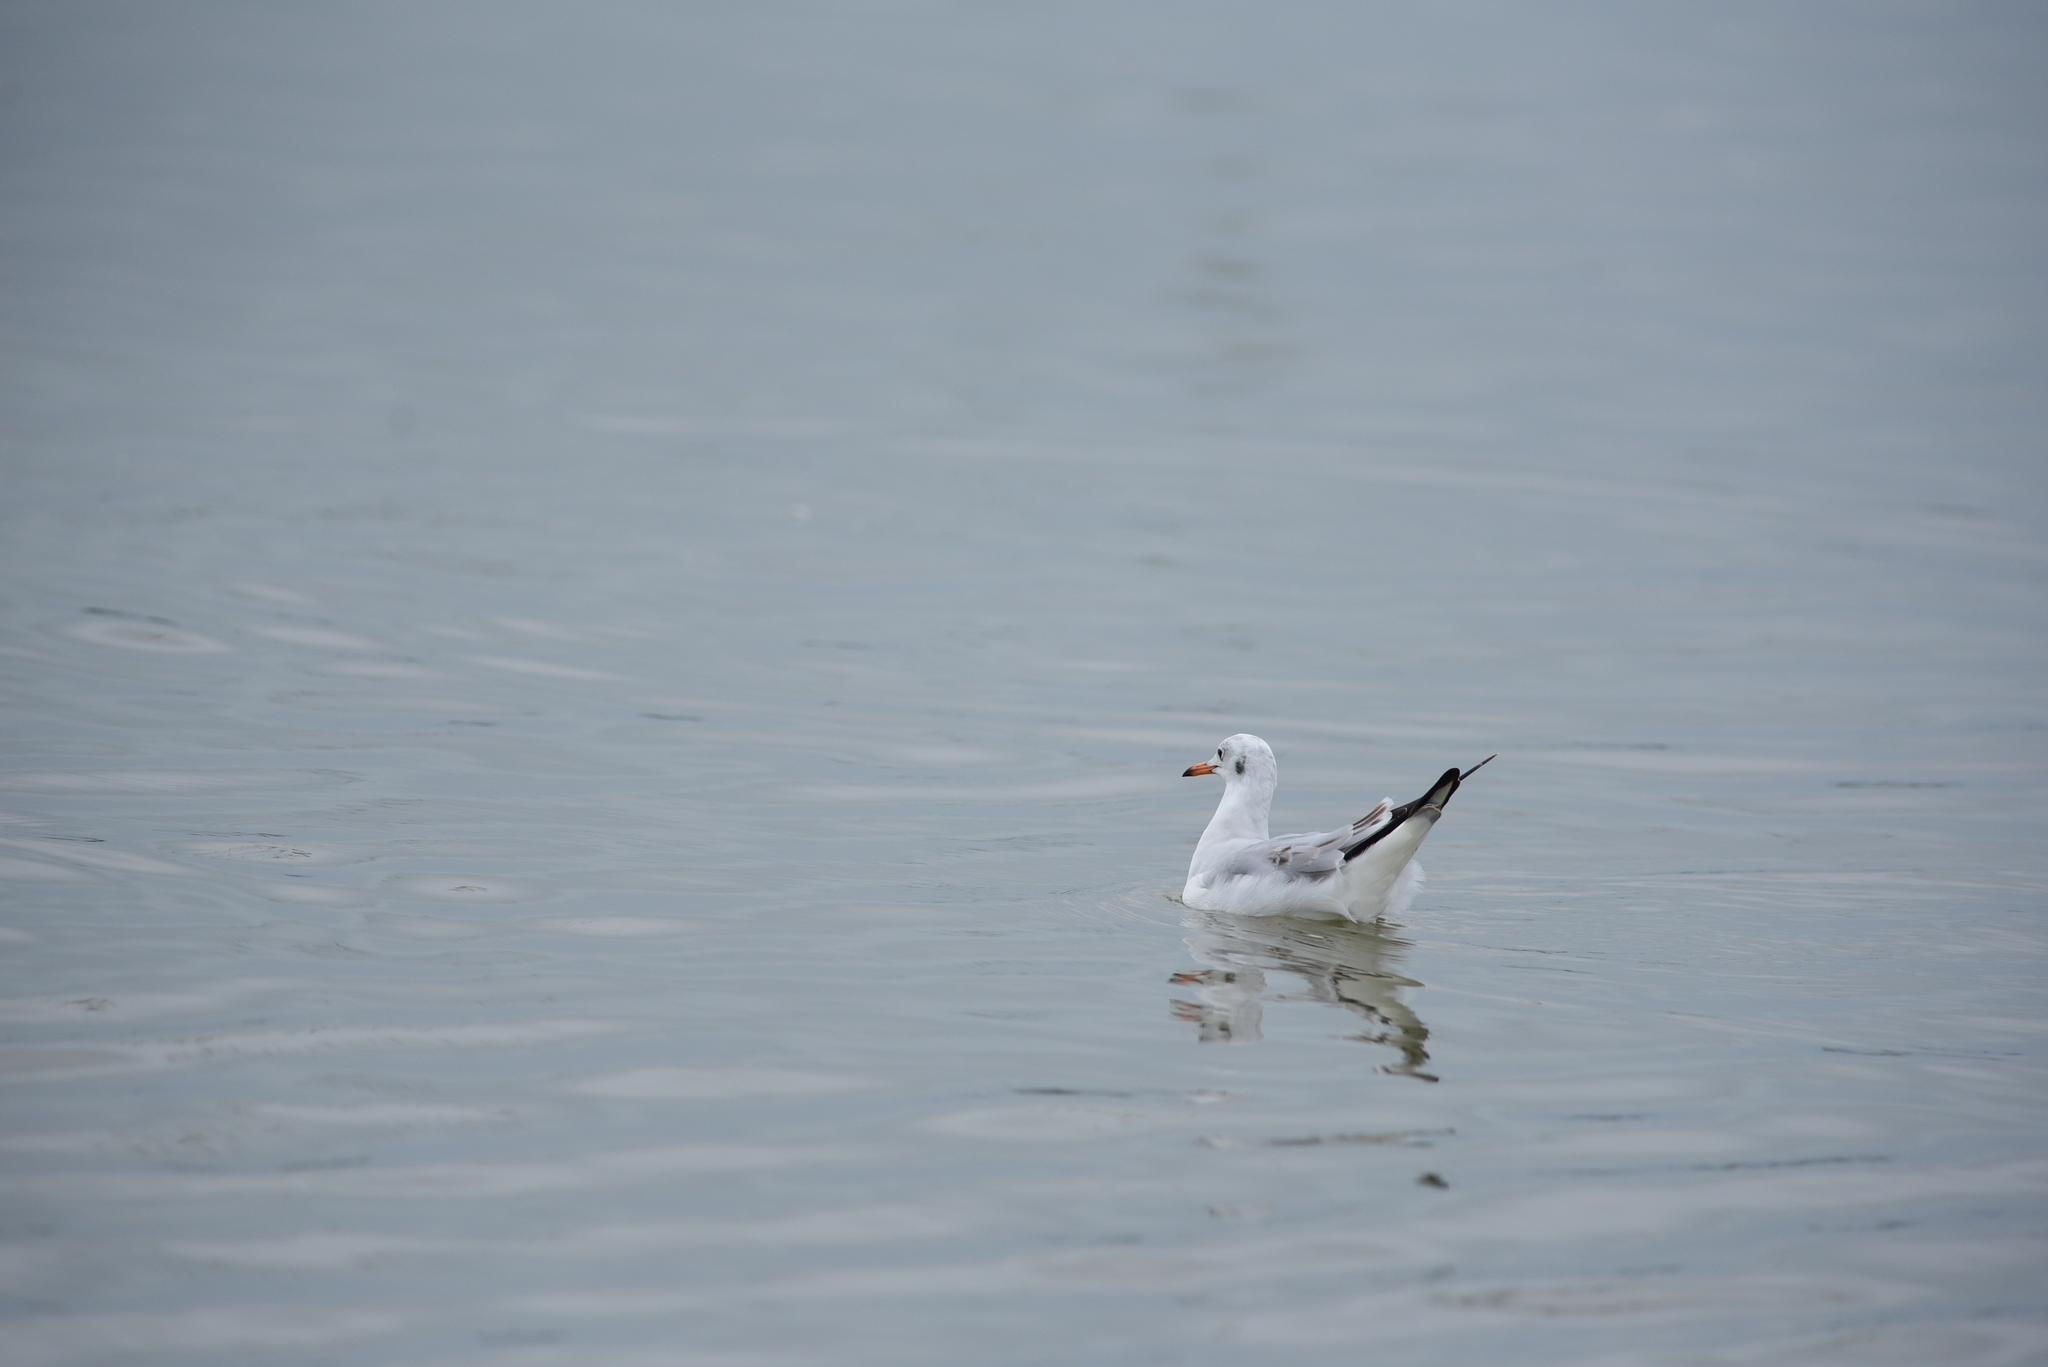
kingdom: Animalia
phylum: Chordata
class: Aves
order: Charadriiformes
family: Laridae
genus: Chroicocephalus
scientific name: Chroicocephalus ridibundus
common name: Black-headed gull
